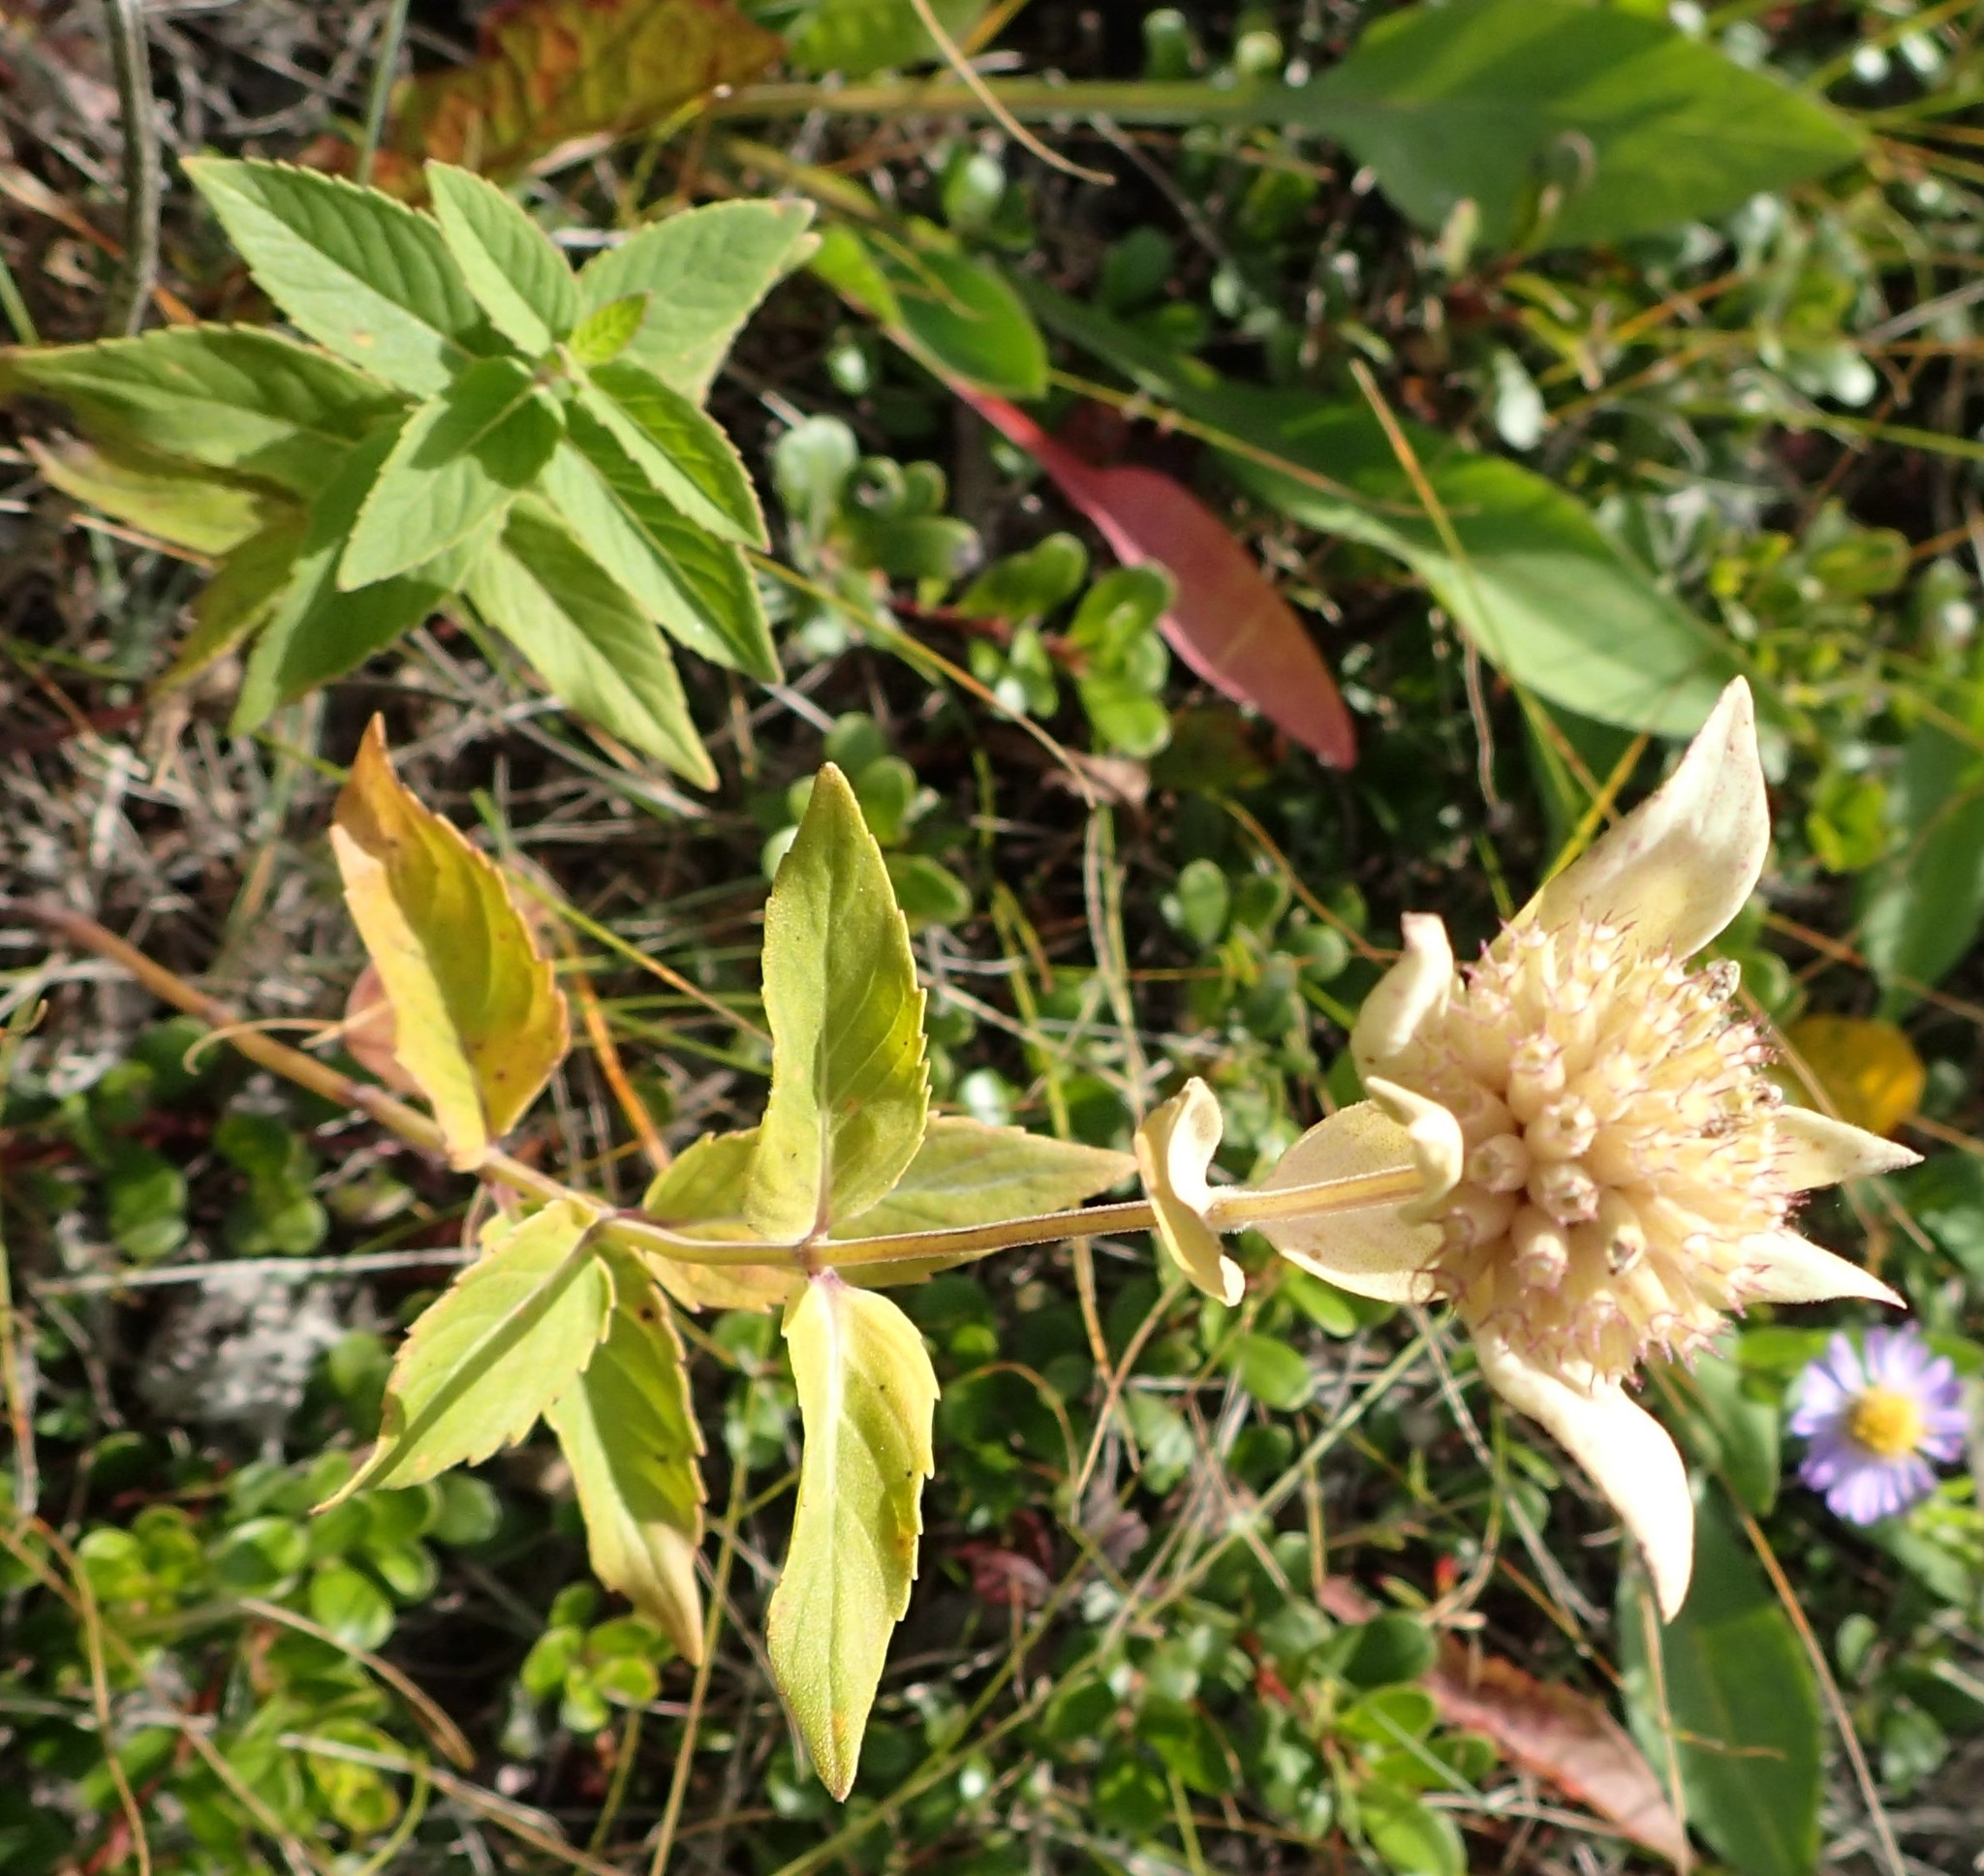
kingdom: Plantae
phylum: Tracheophyta
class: Magnoliopsida
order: Lamiales
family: Lamiaceae
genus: Monarda
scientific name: Monarda fistulosa
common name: Purple beebalm
